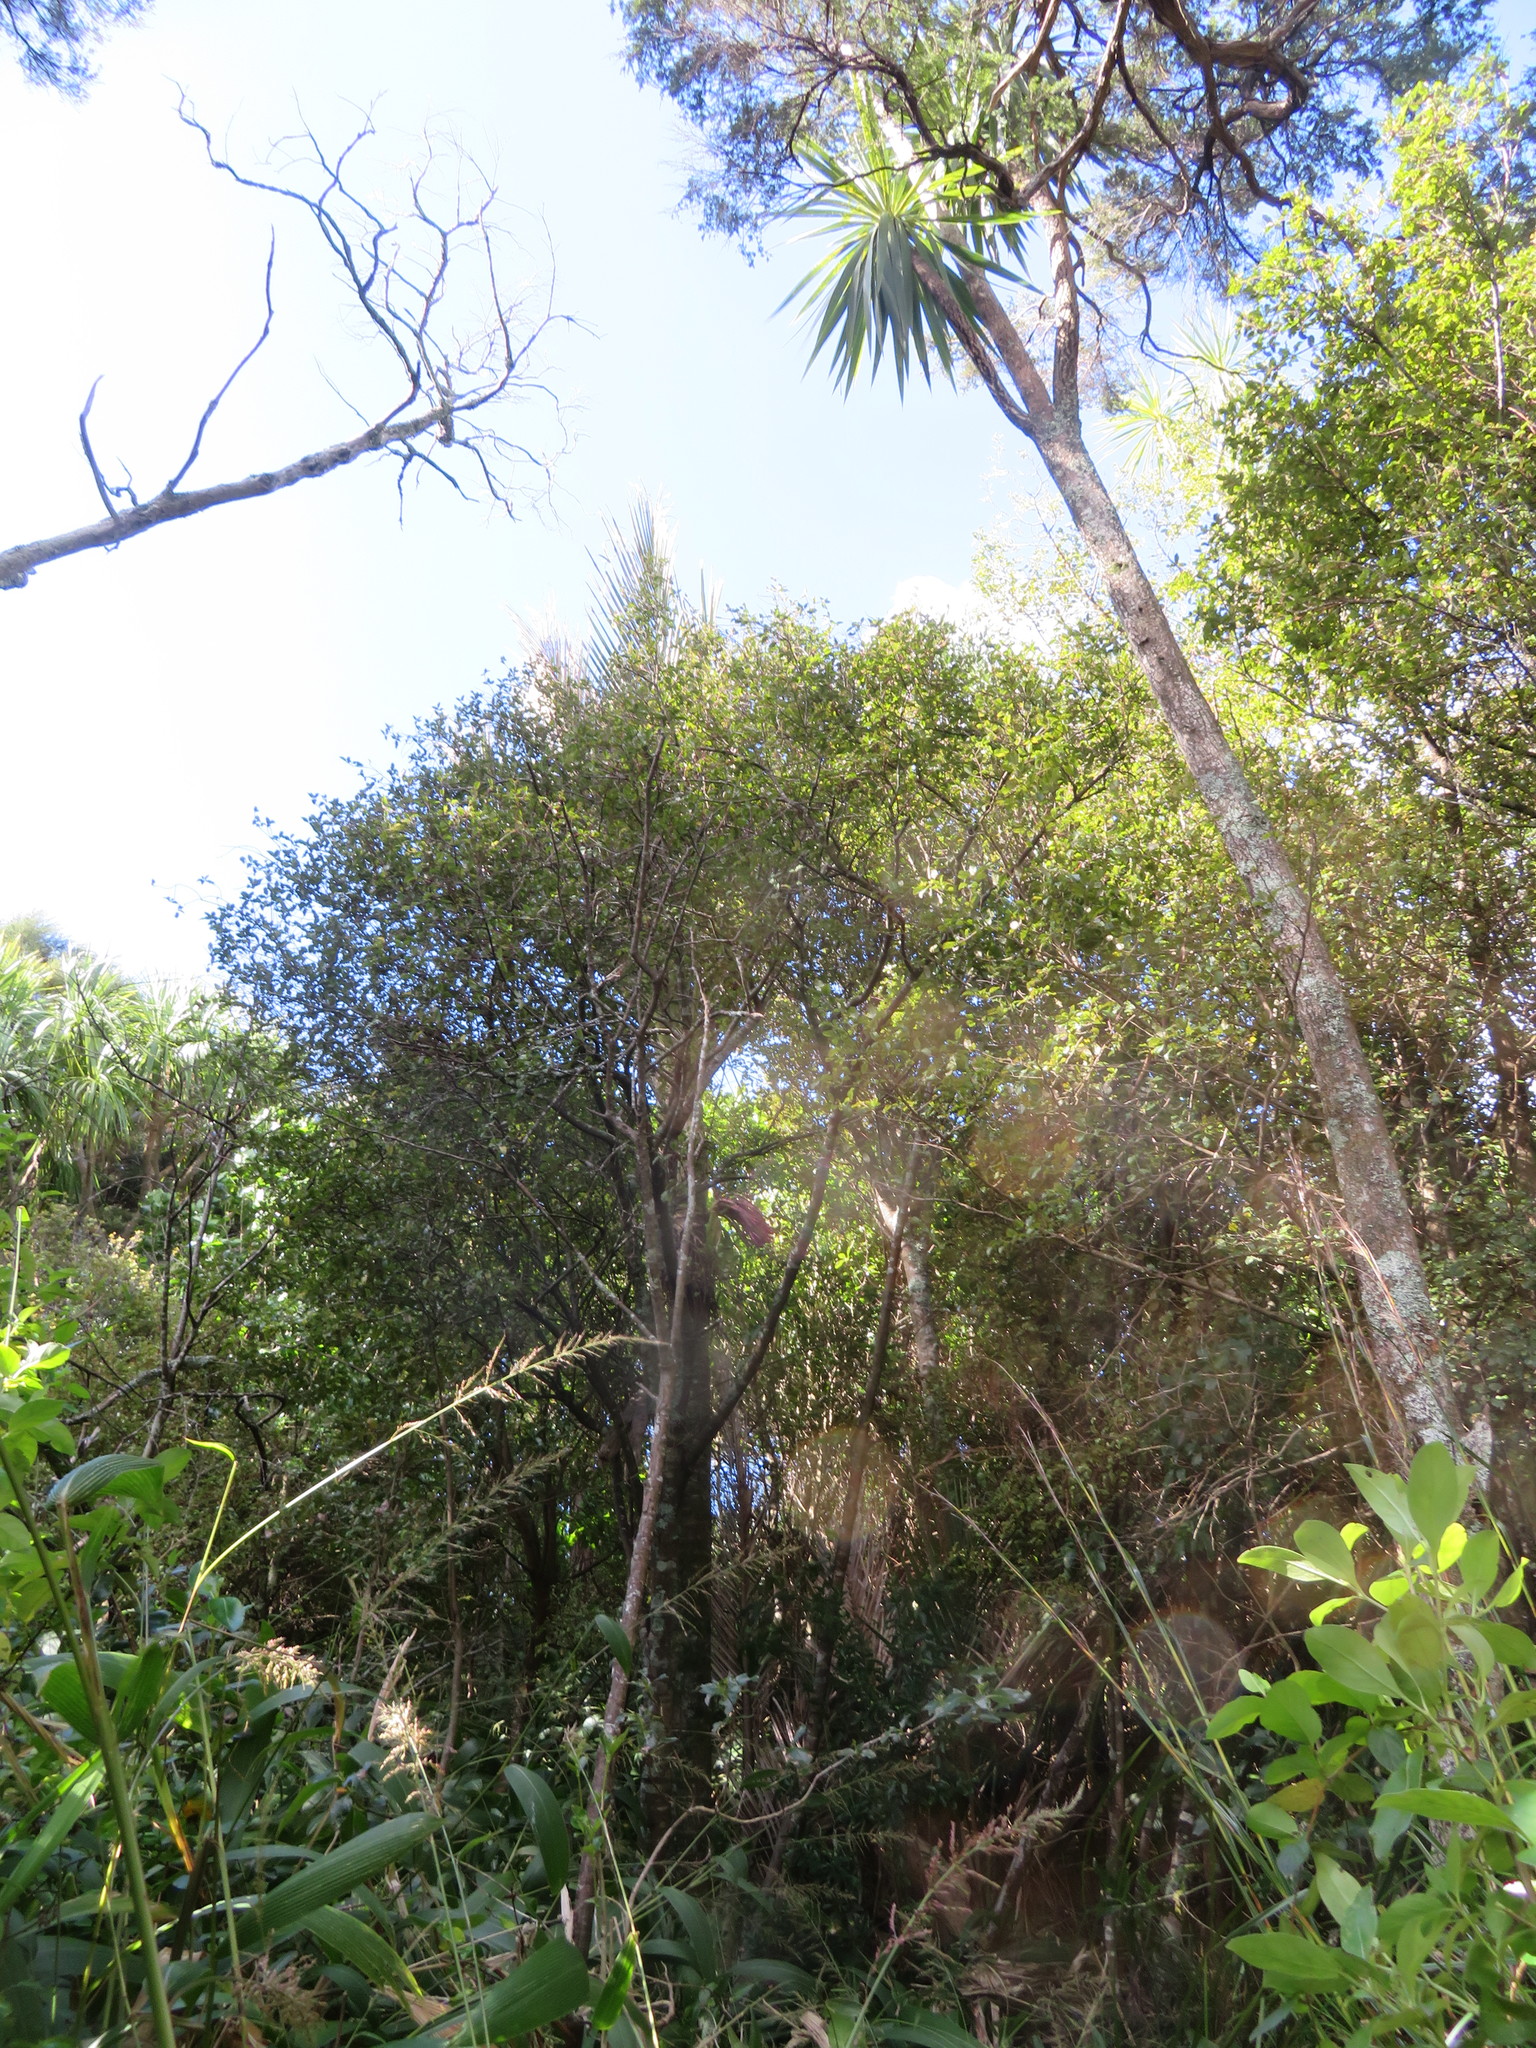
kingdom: Plantae
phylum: Tracheophyta
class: Liliopsida
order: Asparagales
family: Asparagaceae
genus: Cordyline
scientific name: Cordyline australis
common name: Cabbage-palm
